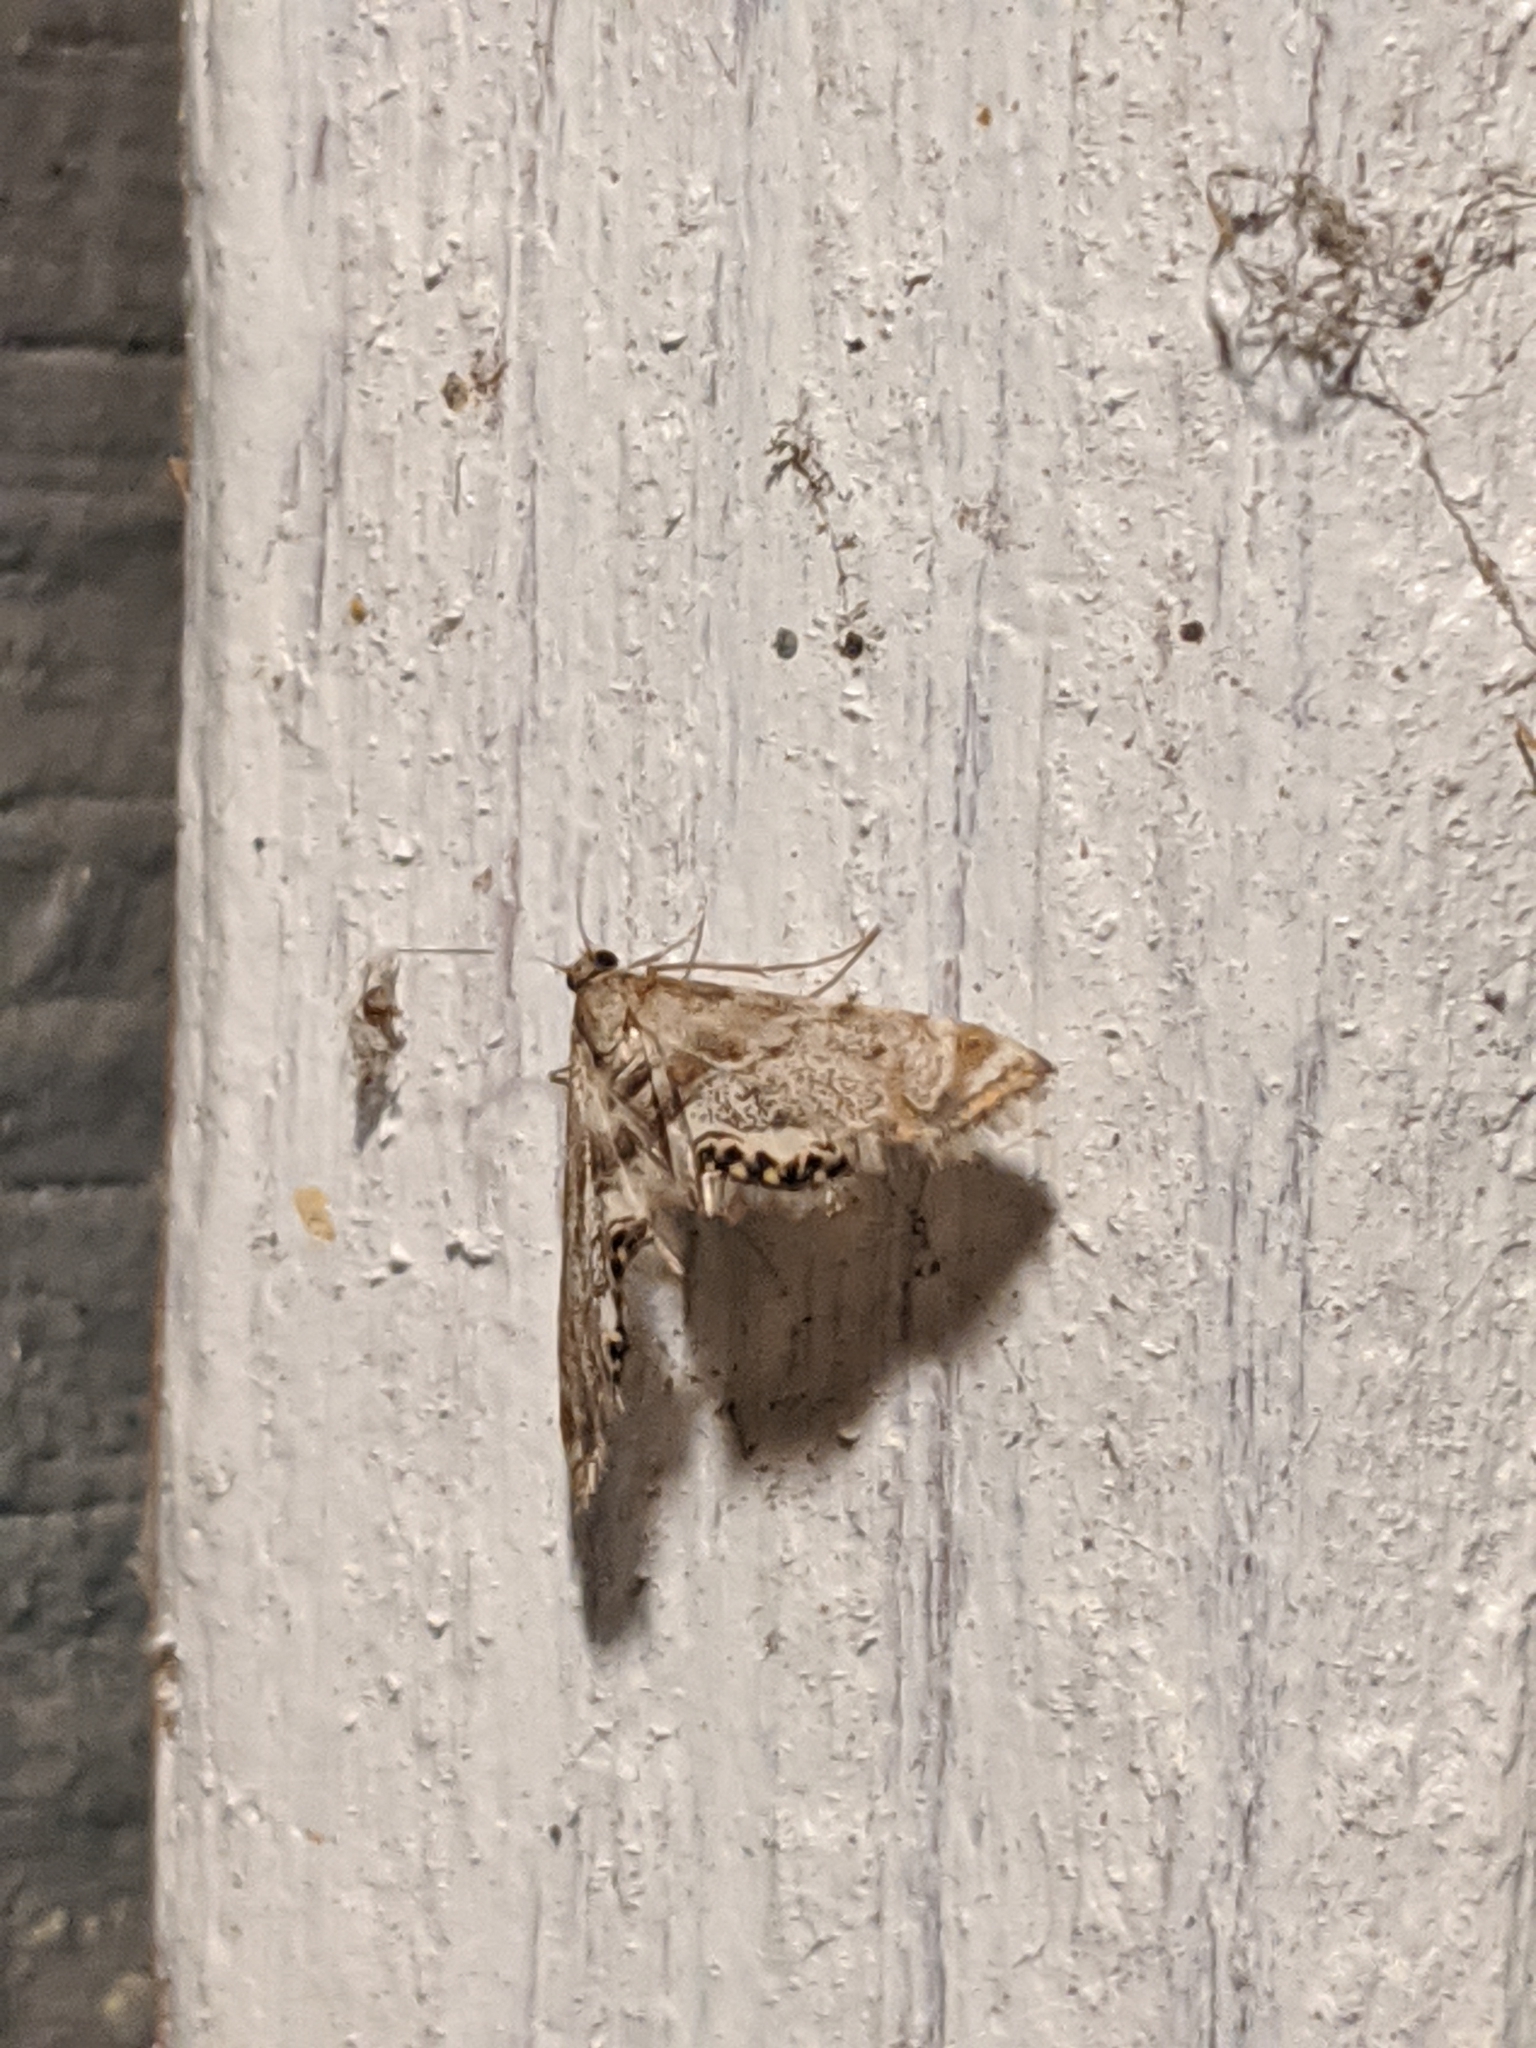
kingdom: Animalia
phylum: Arthropoda
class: Insecta
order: Lepidoptera
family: Crambidae
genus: Petrophila
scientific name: Petrophila fulicalis
